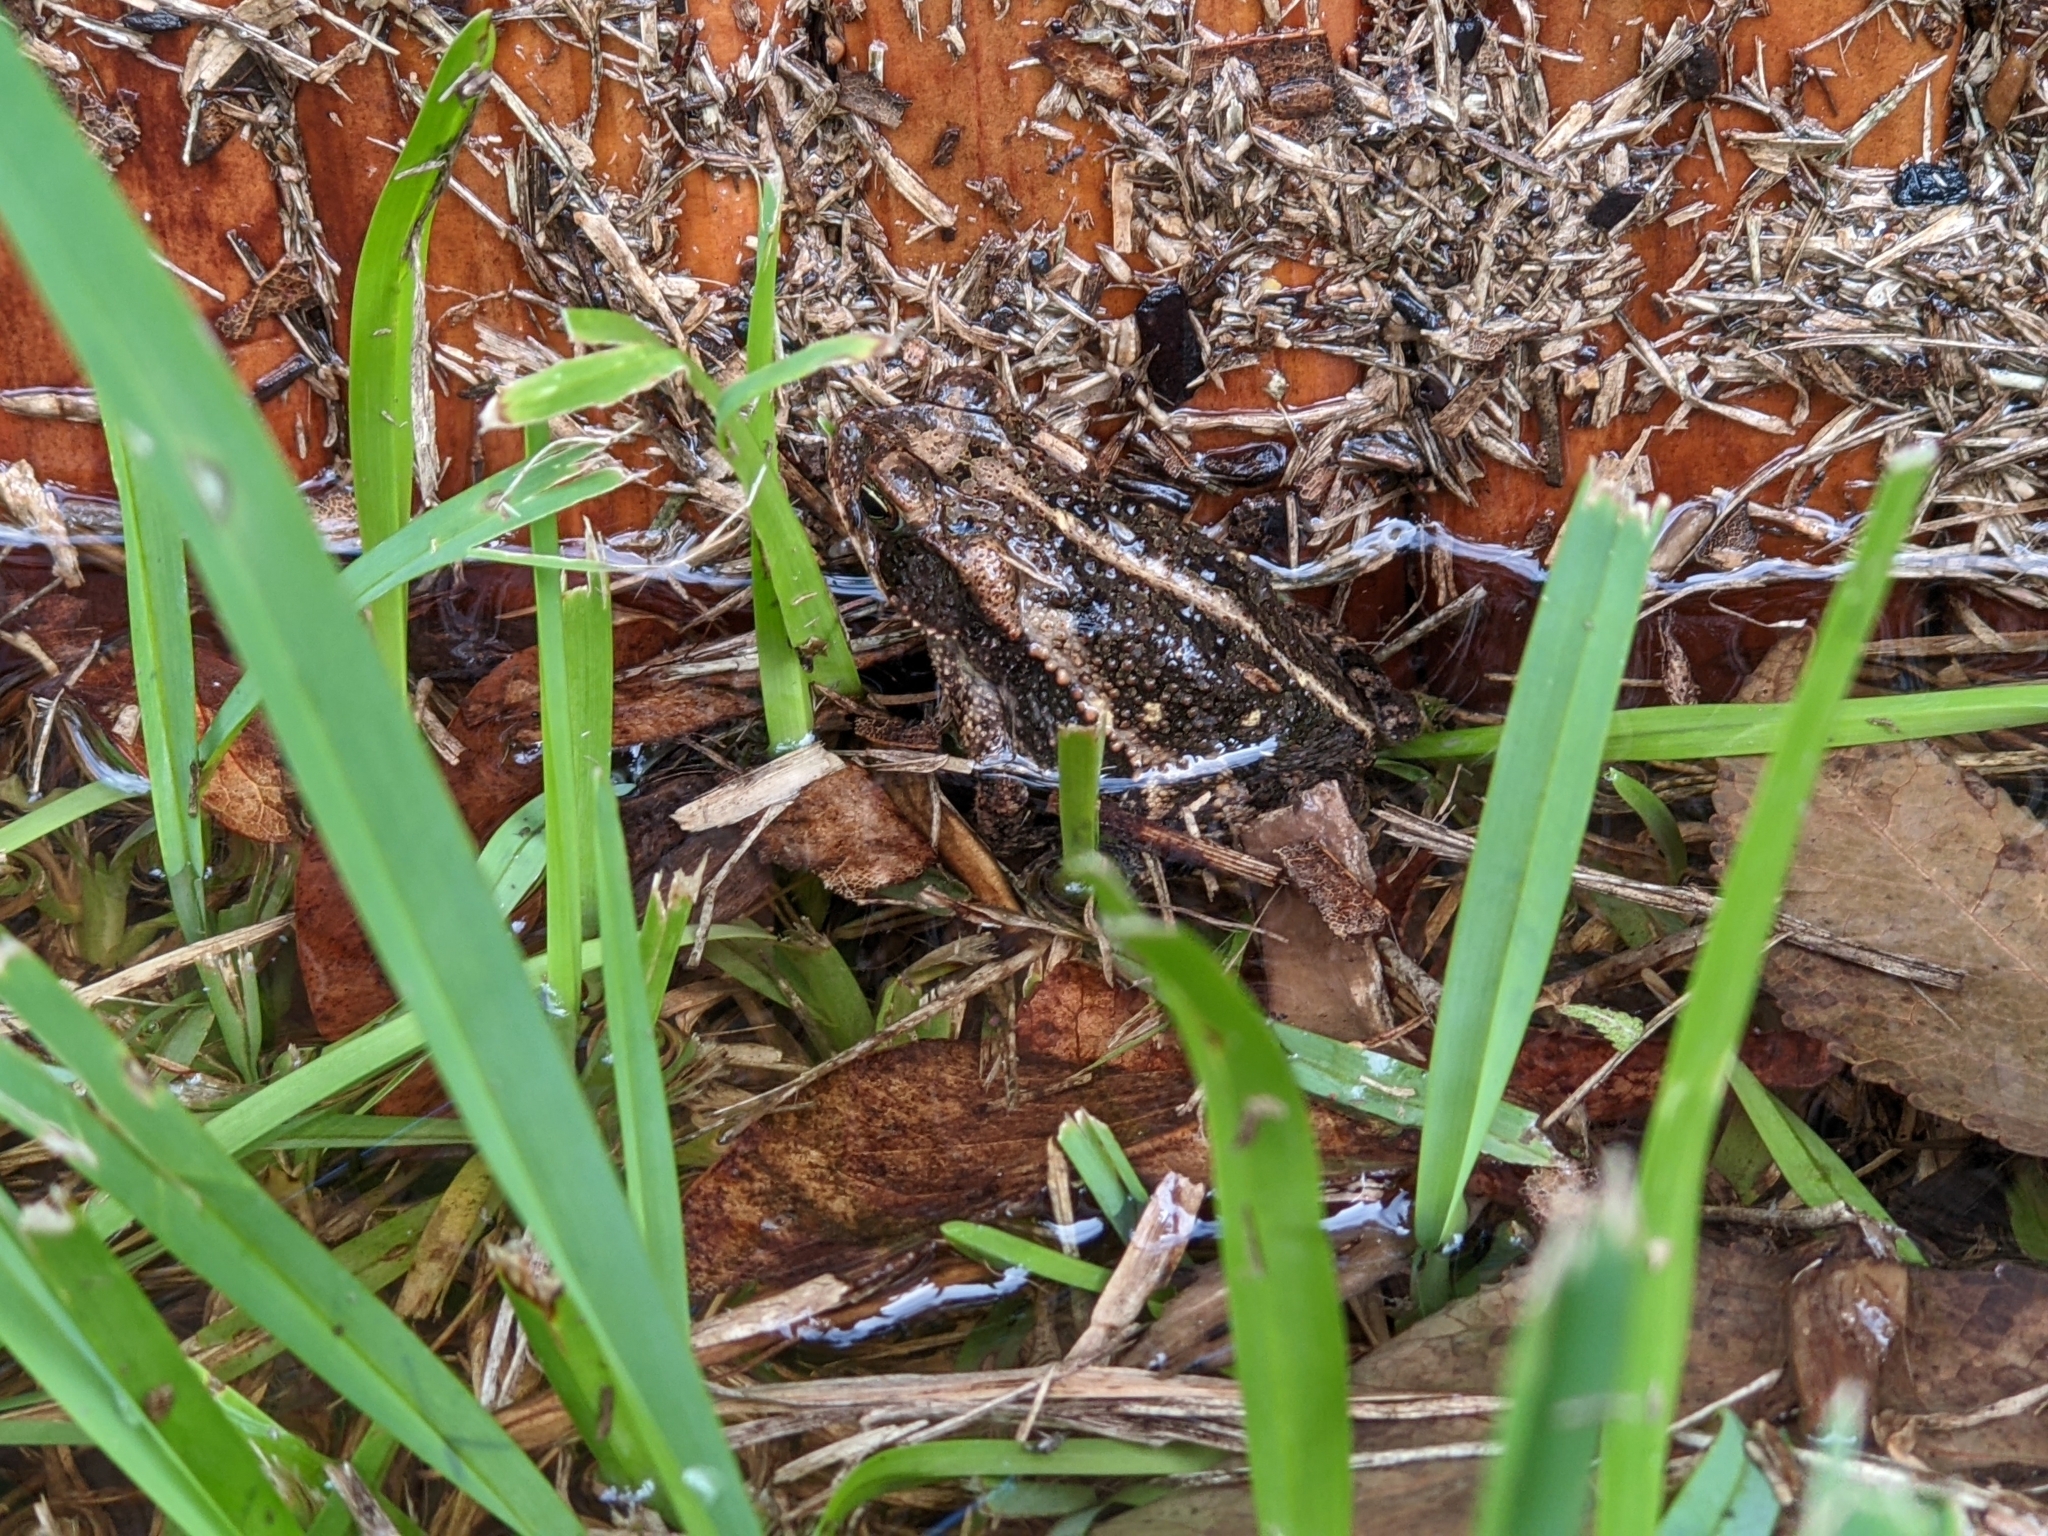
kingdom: Animalia
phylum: Chordata
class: Amphibia
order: Anura
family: Bufonidae
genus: Incilius
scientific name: Incilius nebulifer
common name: Gulf coast toad
